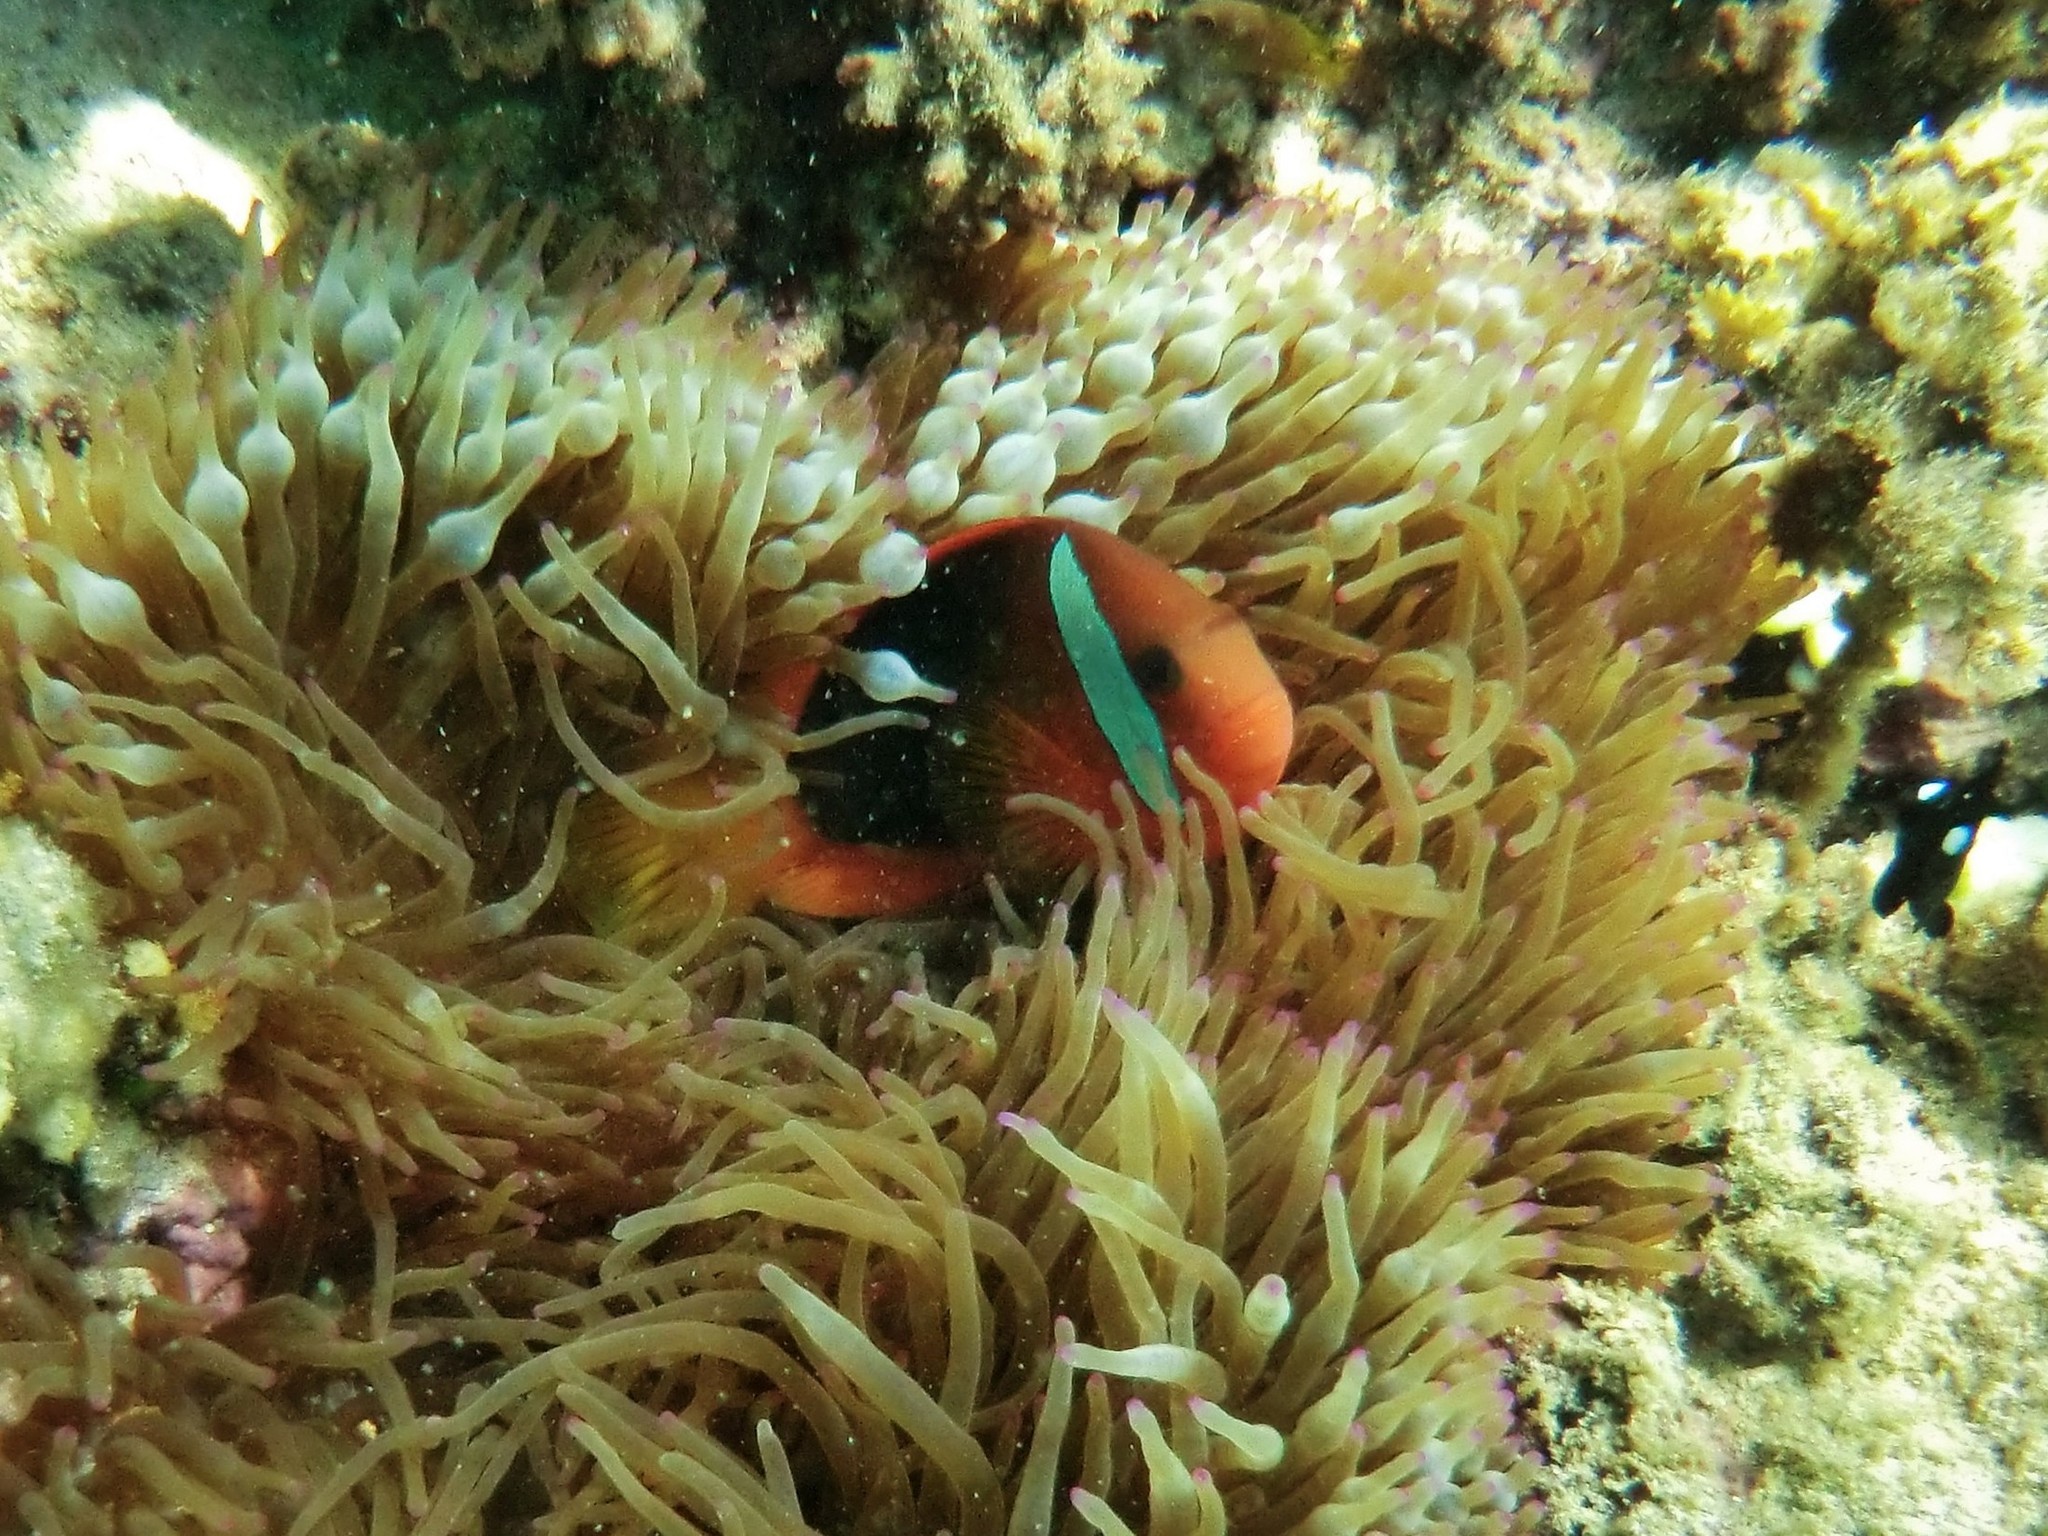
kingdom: Animalia
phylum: Chordata
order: Perciformes
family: Pomacentridae
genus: Amphiprion
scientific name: Amphiprion melanopus
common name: Black anemonefish
